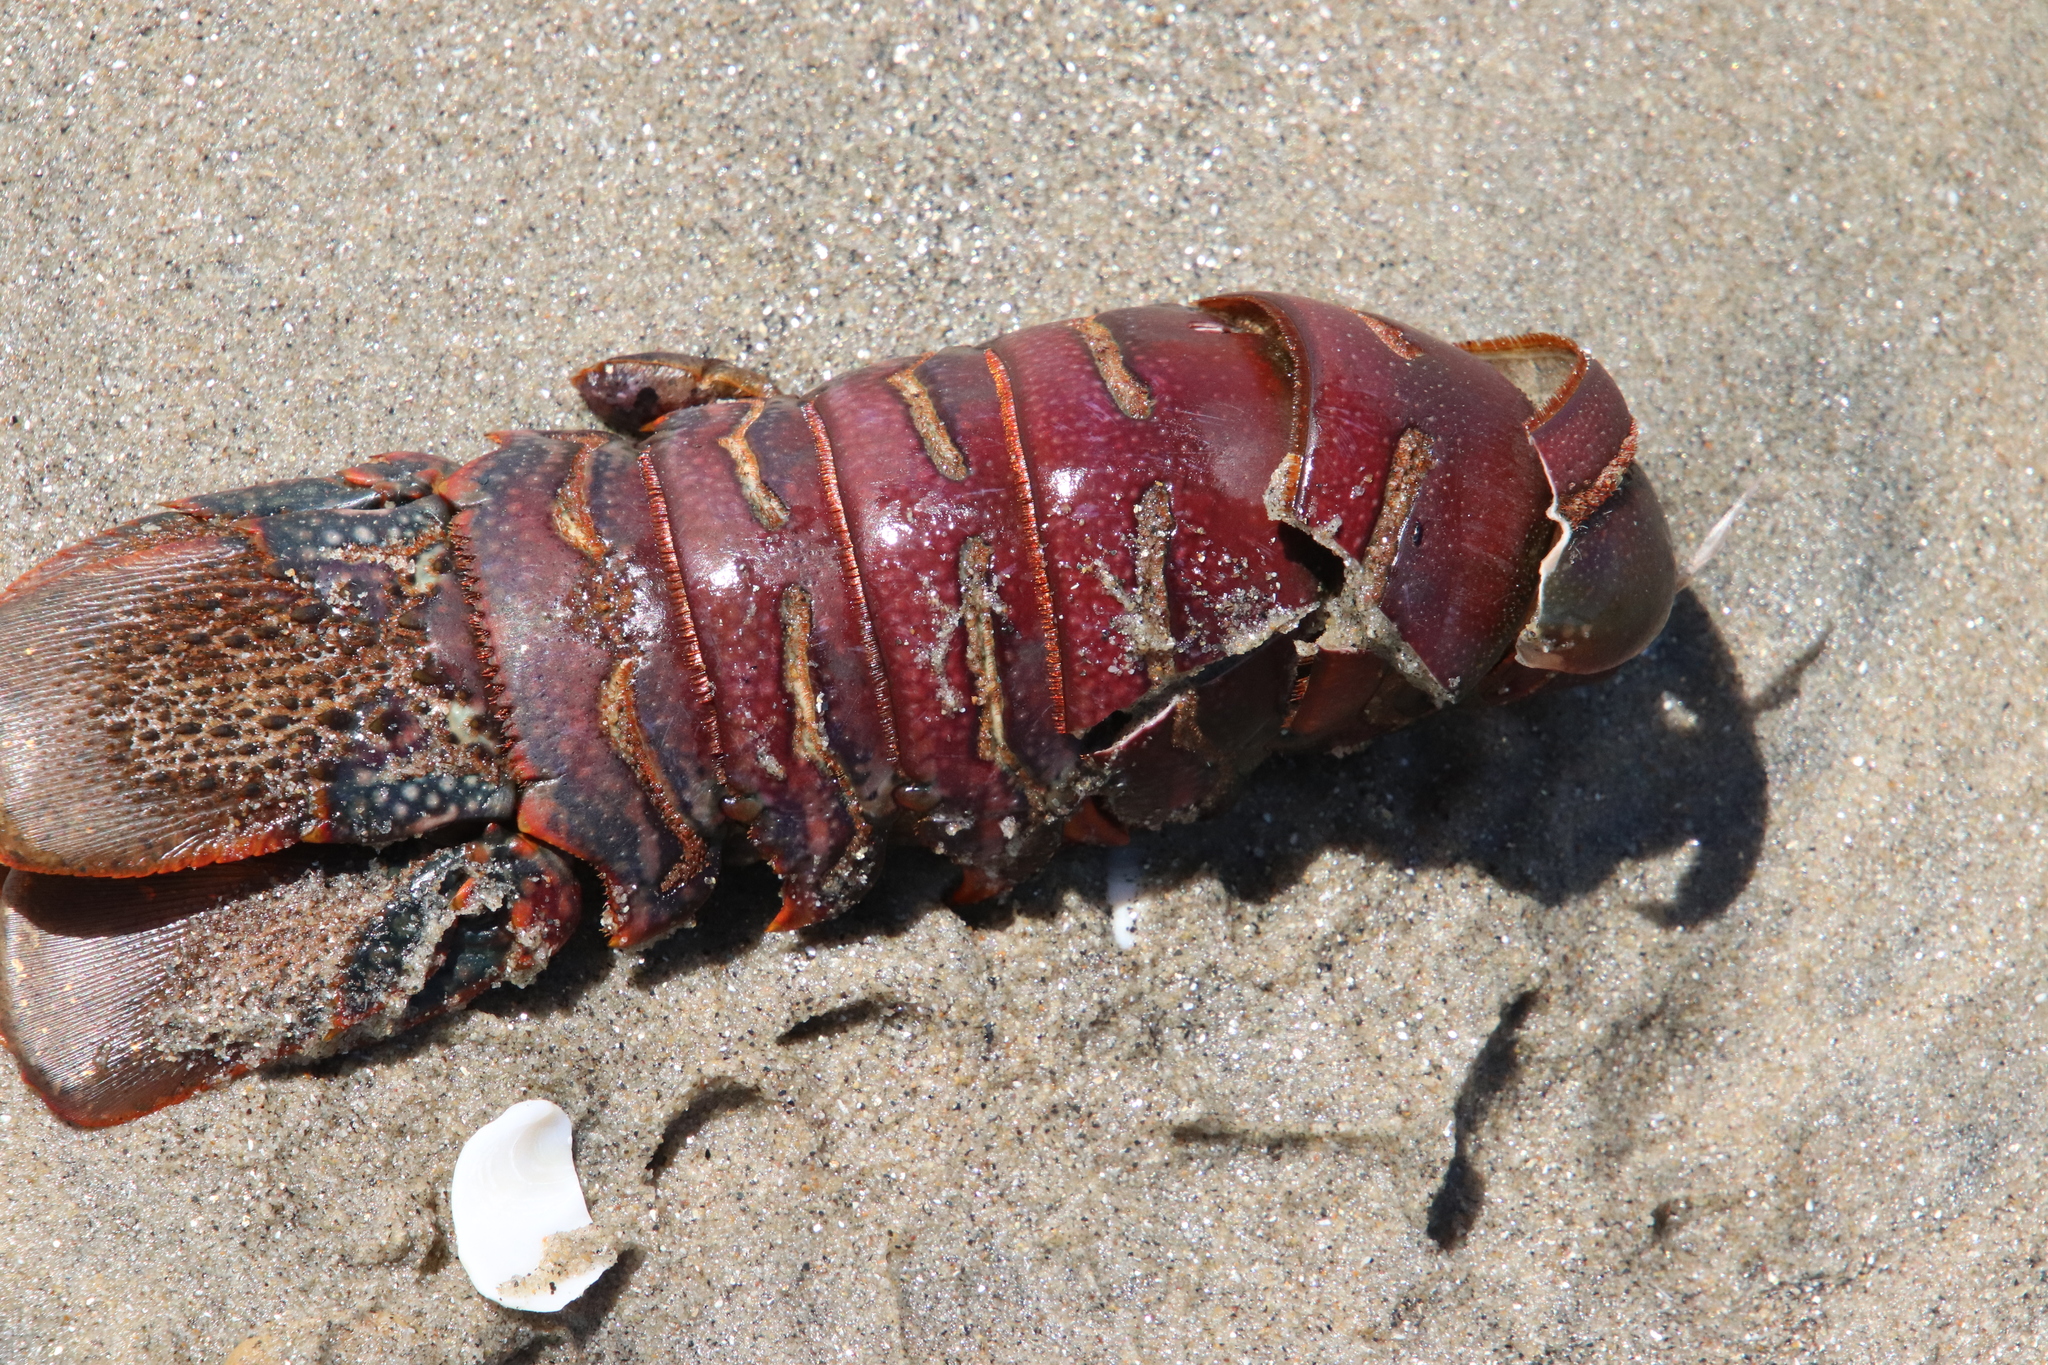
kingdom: Animalia
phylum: Arthropoda
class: Malacostraca
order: Decapoda
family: Palinuridae
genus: Panulirus
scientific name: Panulirus interruptus
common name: California spiny lobster
